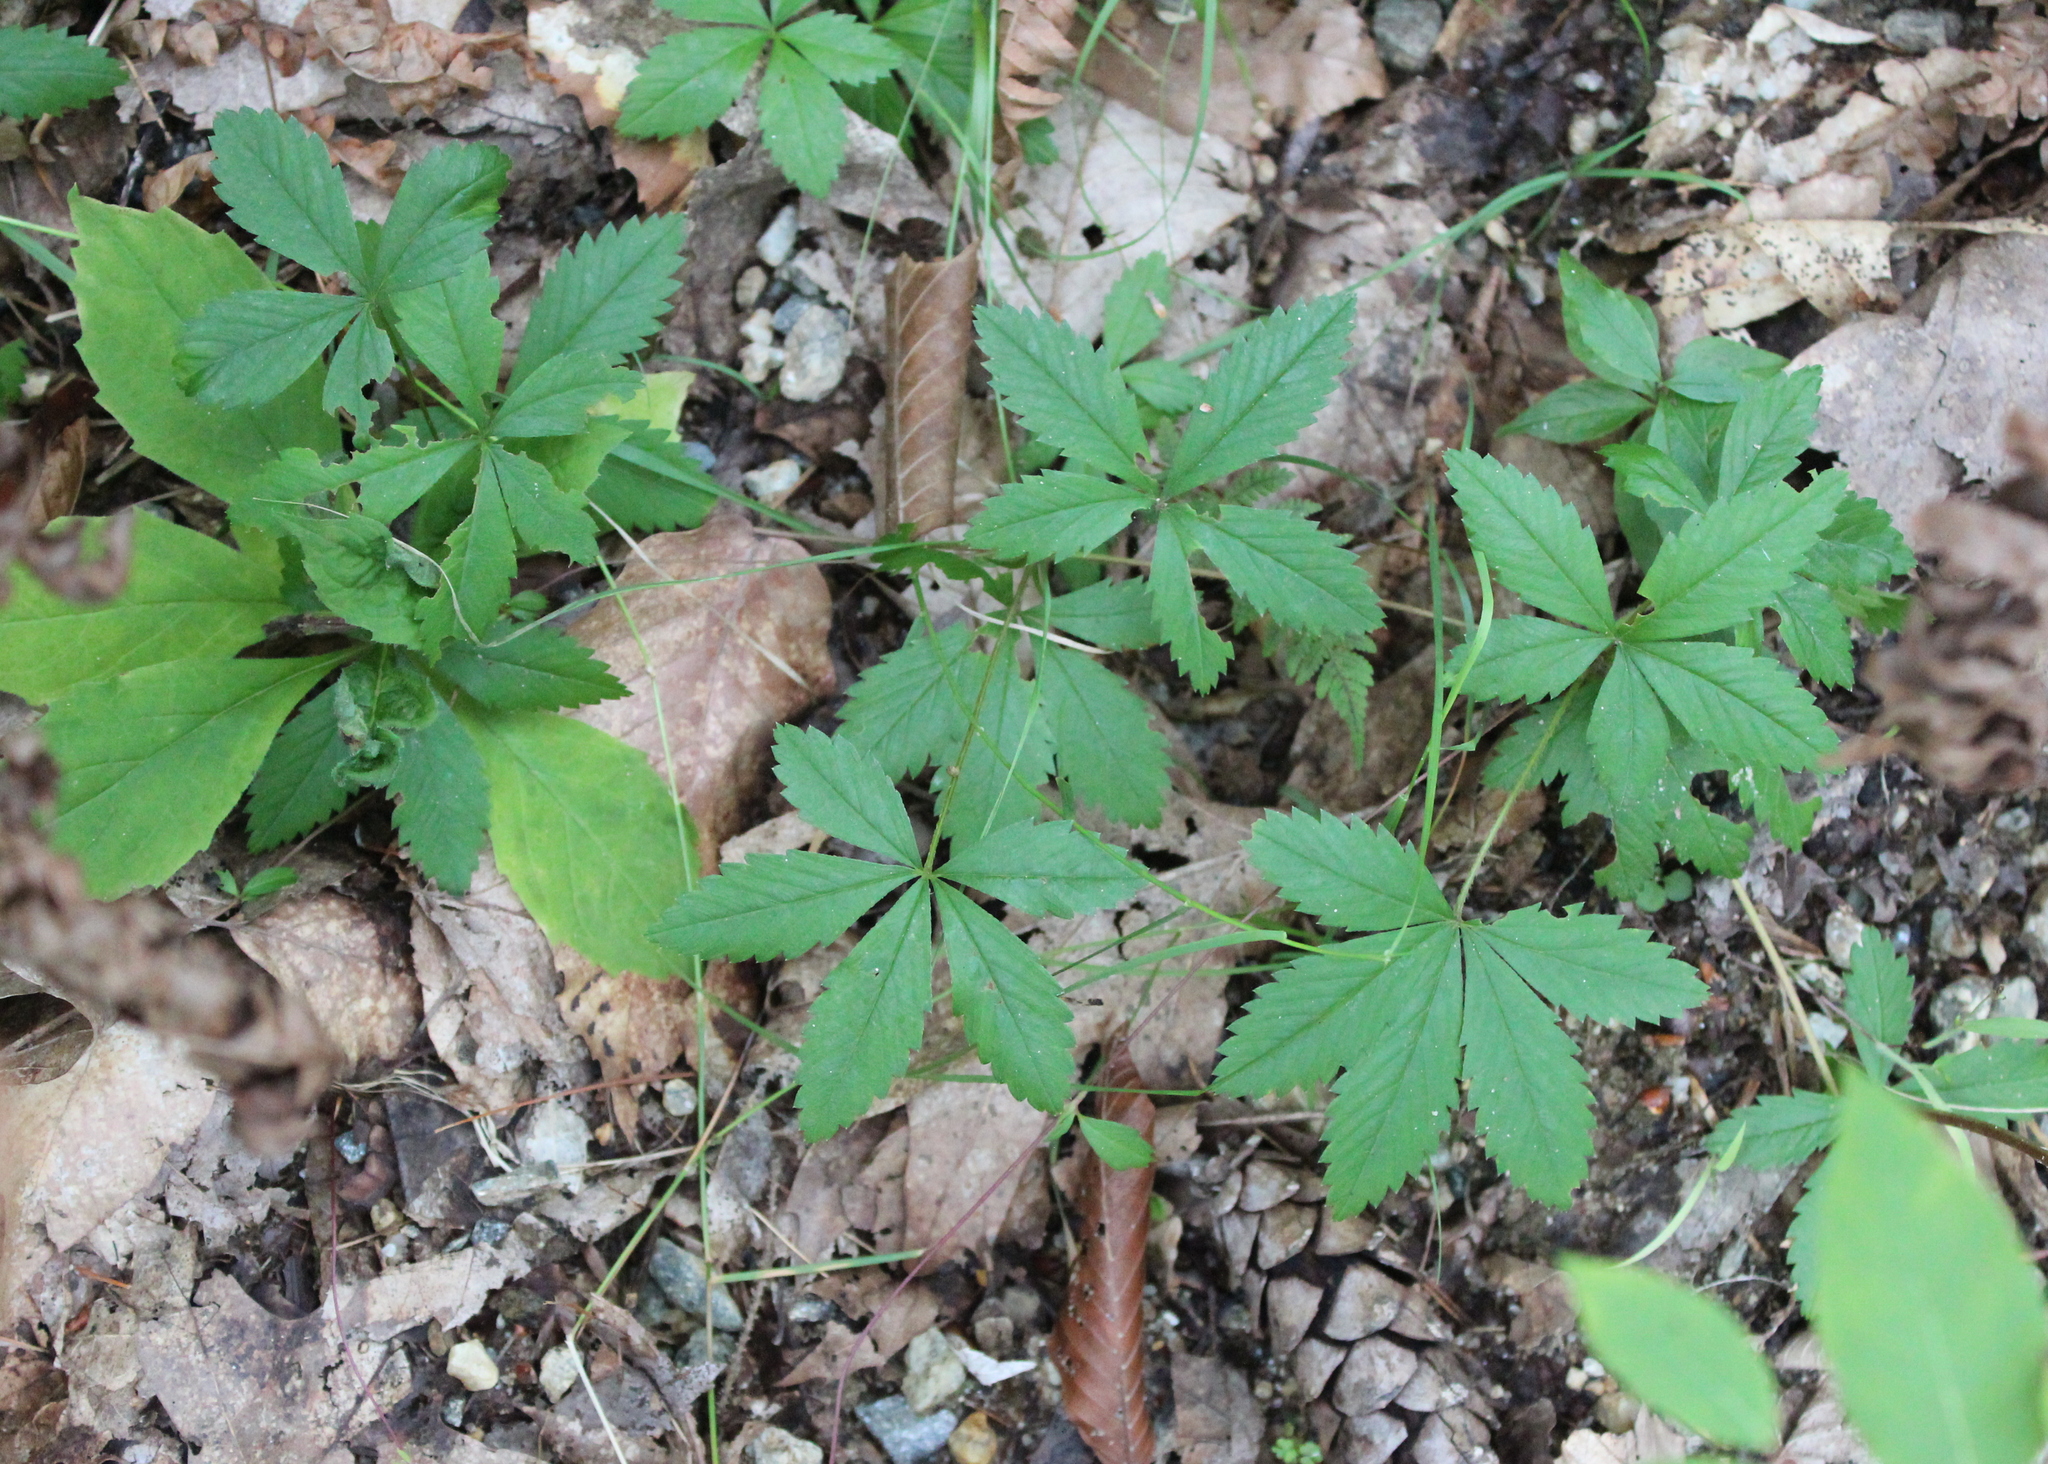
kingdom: Plantae
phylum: Tracheophyta
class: Magnoliopsida
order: Rosales
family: Rosaceae
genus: Potentilla
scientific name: Potentilla simplex
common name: Old field cinquefoil
